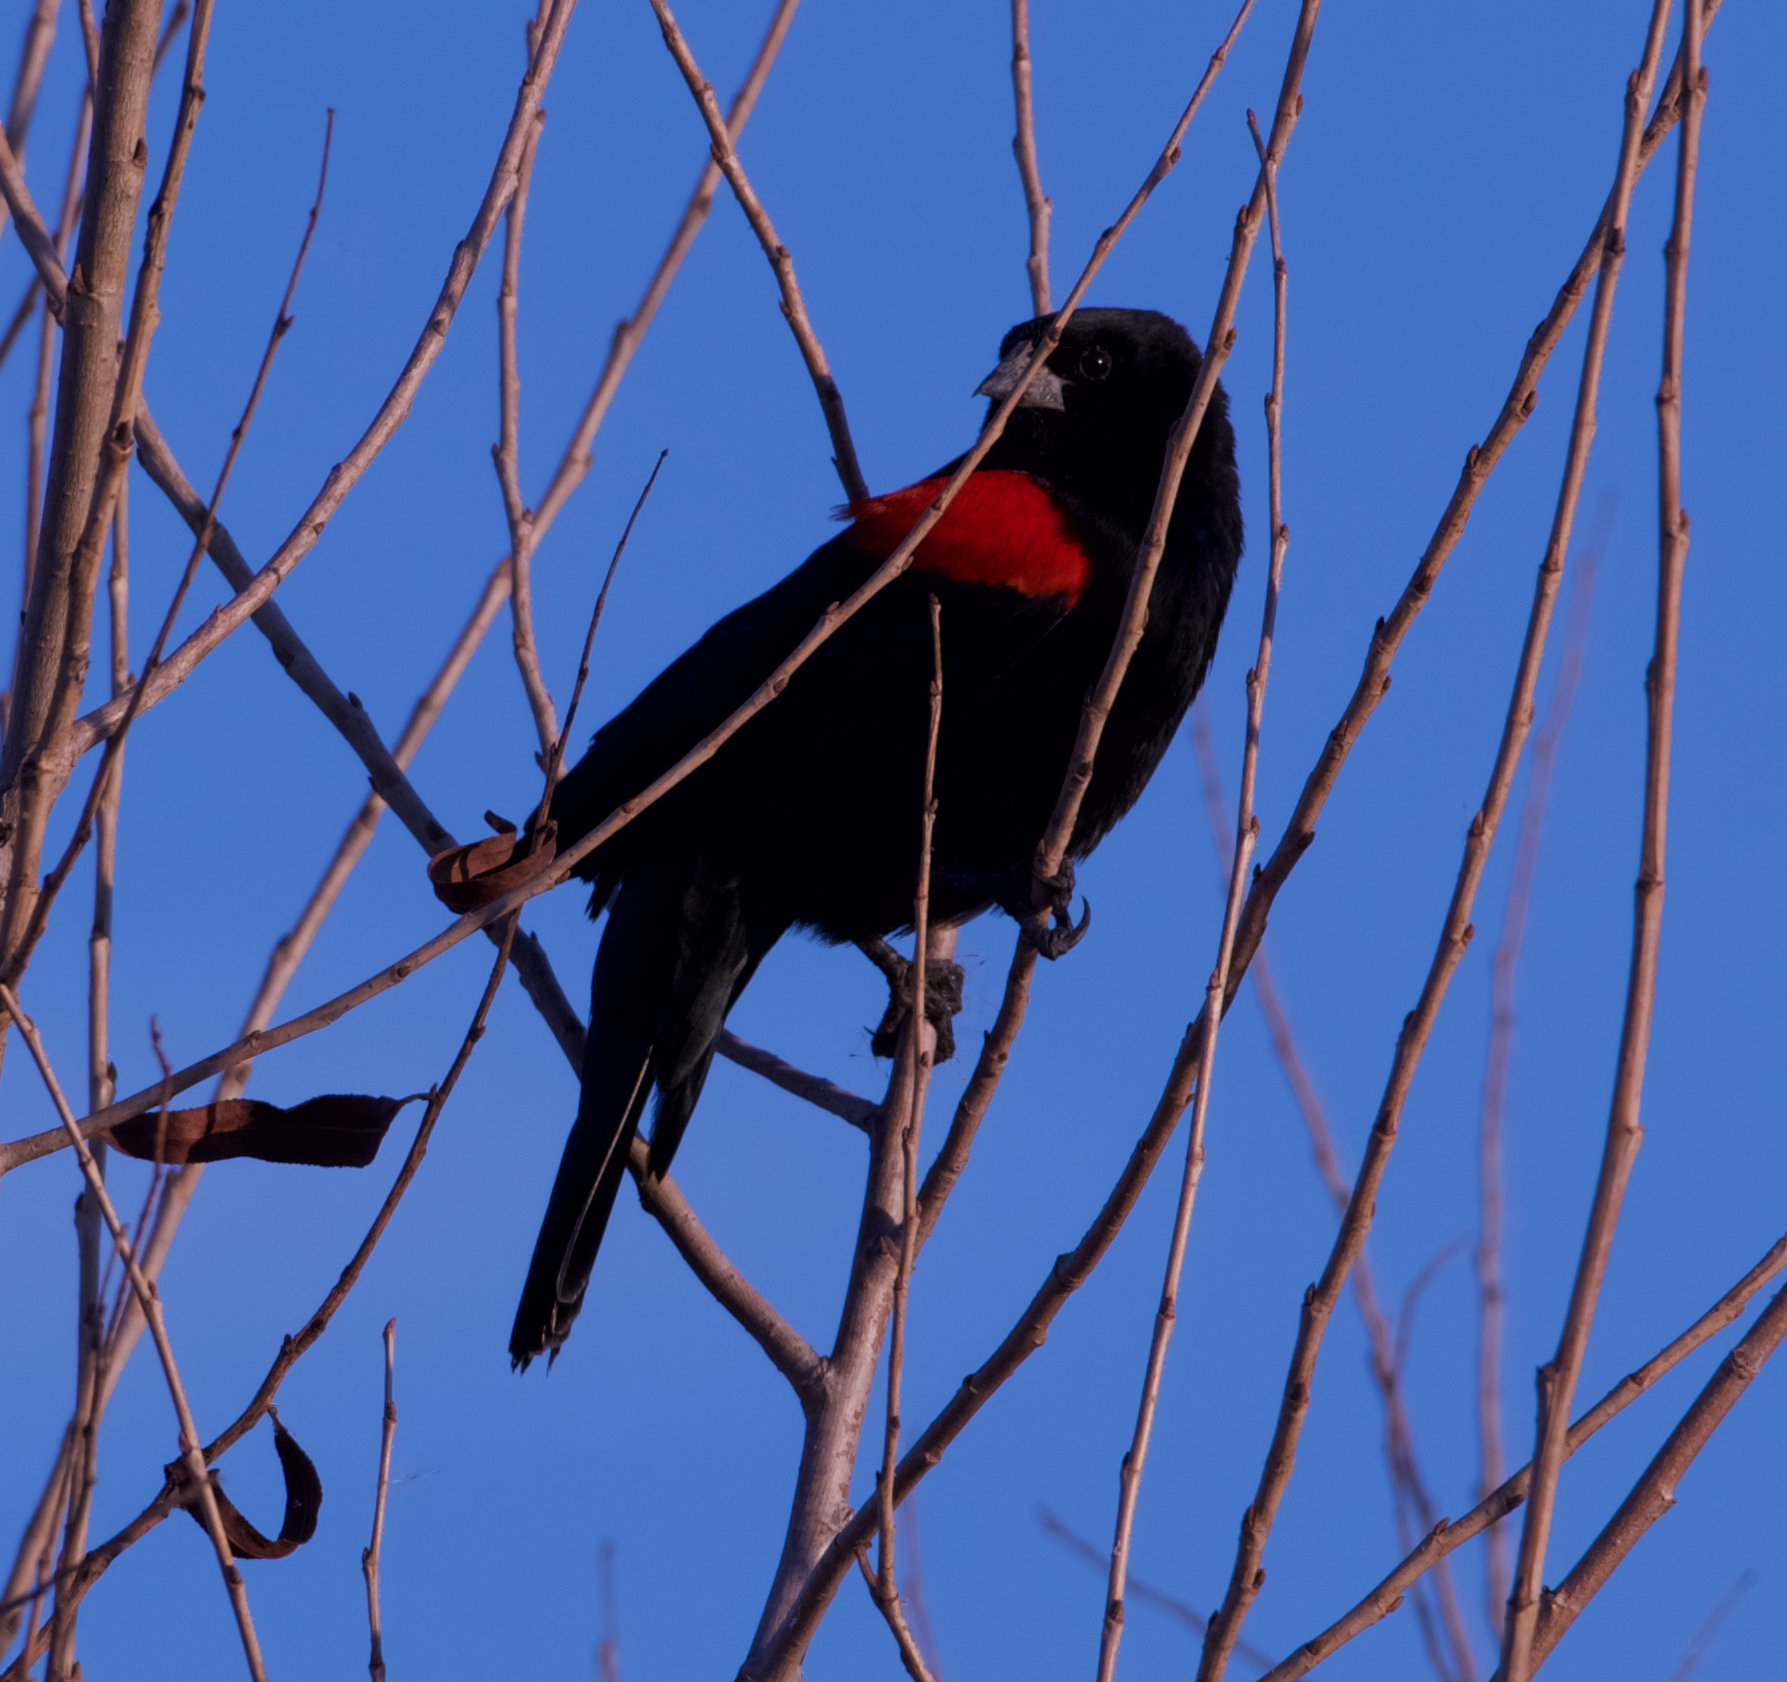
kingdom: Animalia
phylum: Chordata
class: Aves
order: Passeriformes
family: Icteridae
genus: Agelaius
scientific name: Agelaius phoeniceus
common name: Red-winged blackbird
